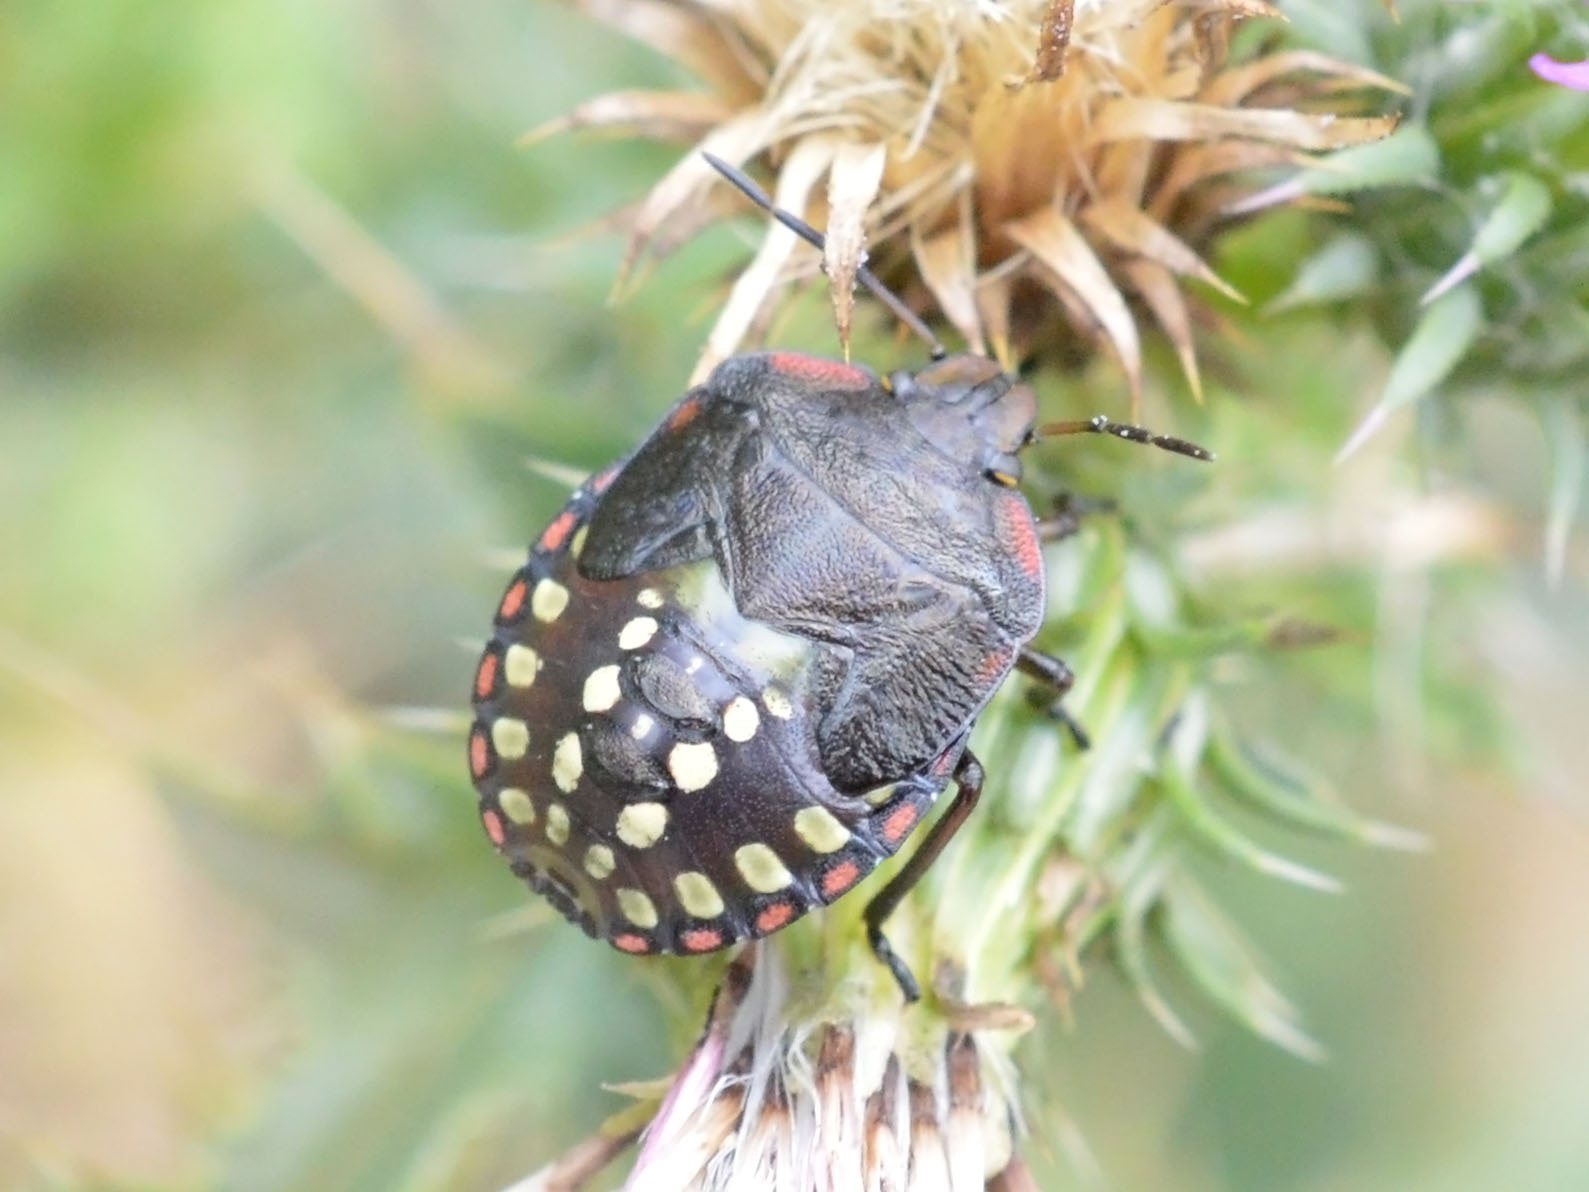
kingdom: Animalia
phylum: Arthropoda
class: Insecta
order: Hemiptera
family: Pentatomidae
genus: Nezara
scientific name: Nezara viridula
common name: Southern green stink bug
